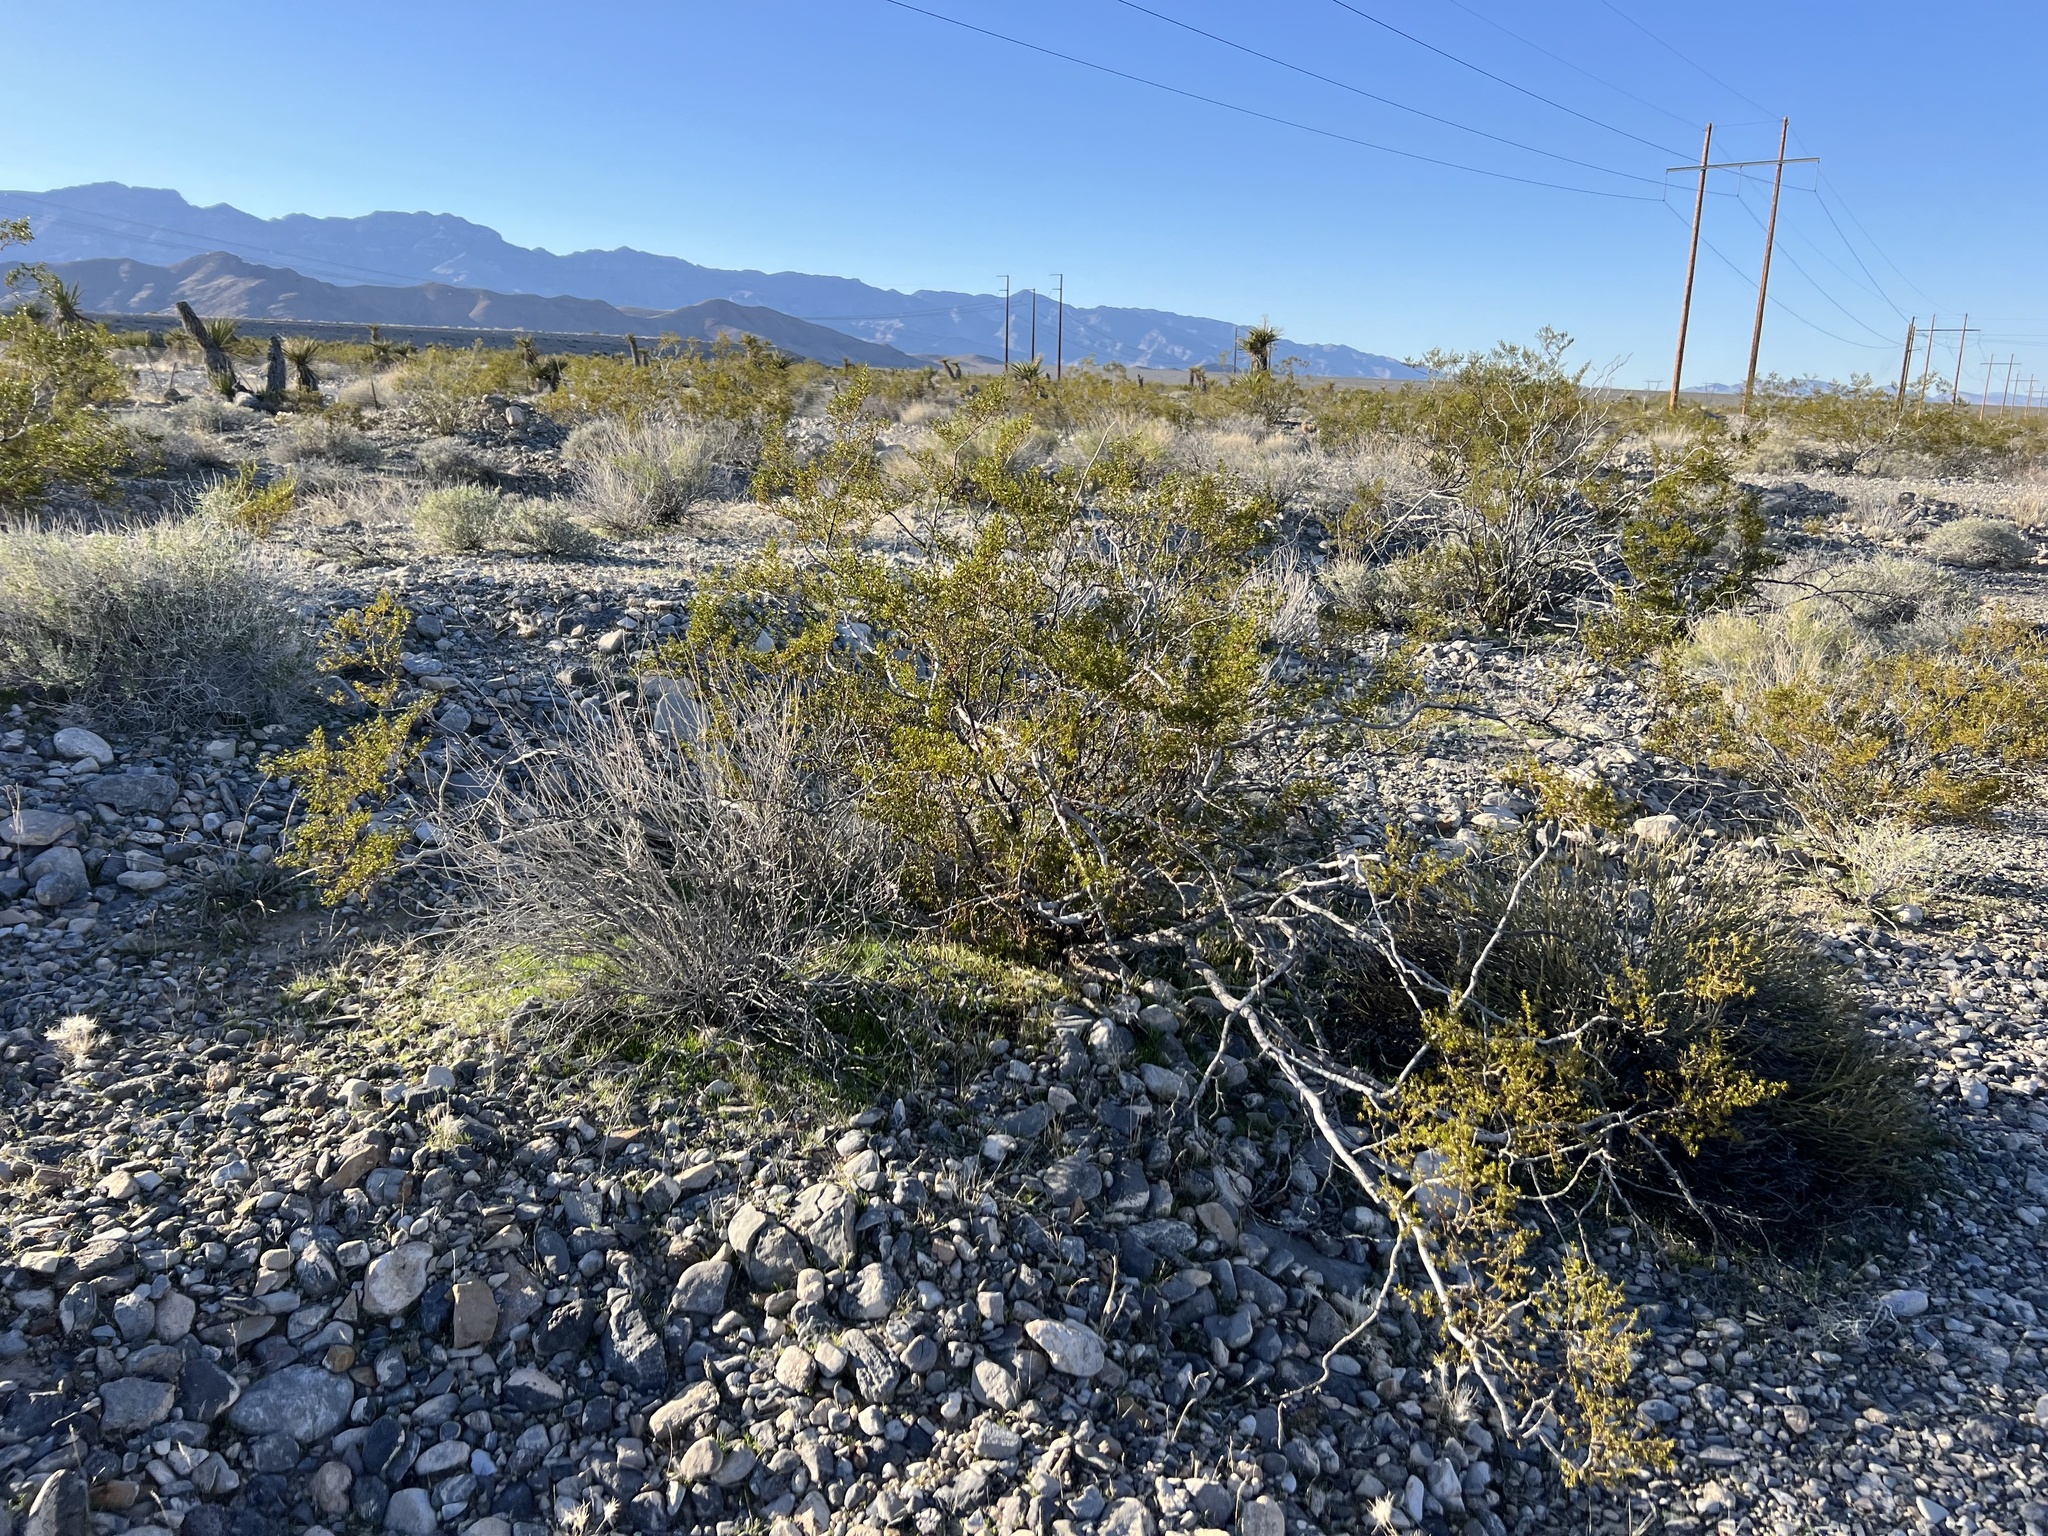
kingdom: Plantae
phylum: Tracheophyta
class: Magnoliopsida
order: Zygophyllales
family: Zygophyllaceae
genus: Larrea
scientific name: Larrea tridentata
